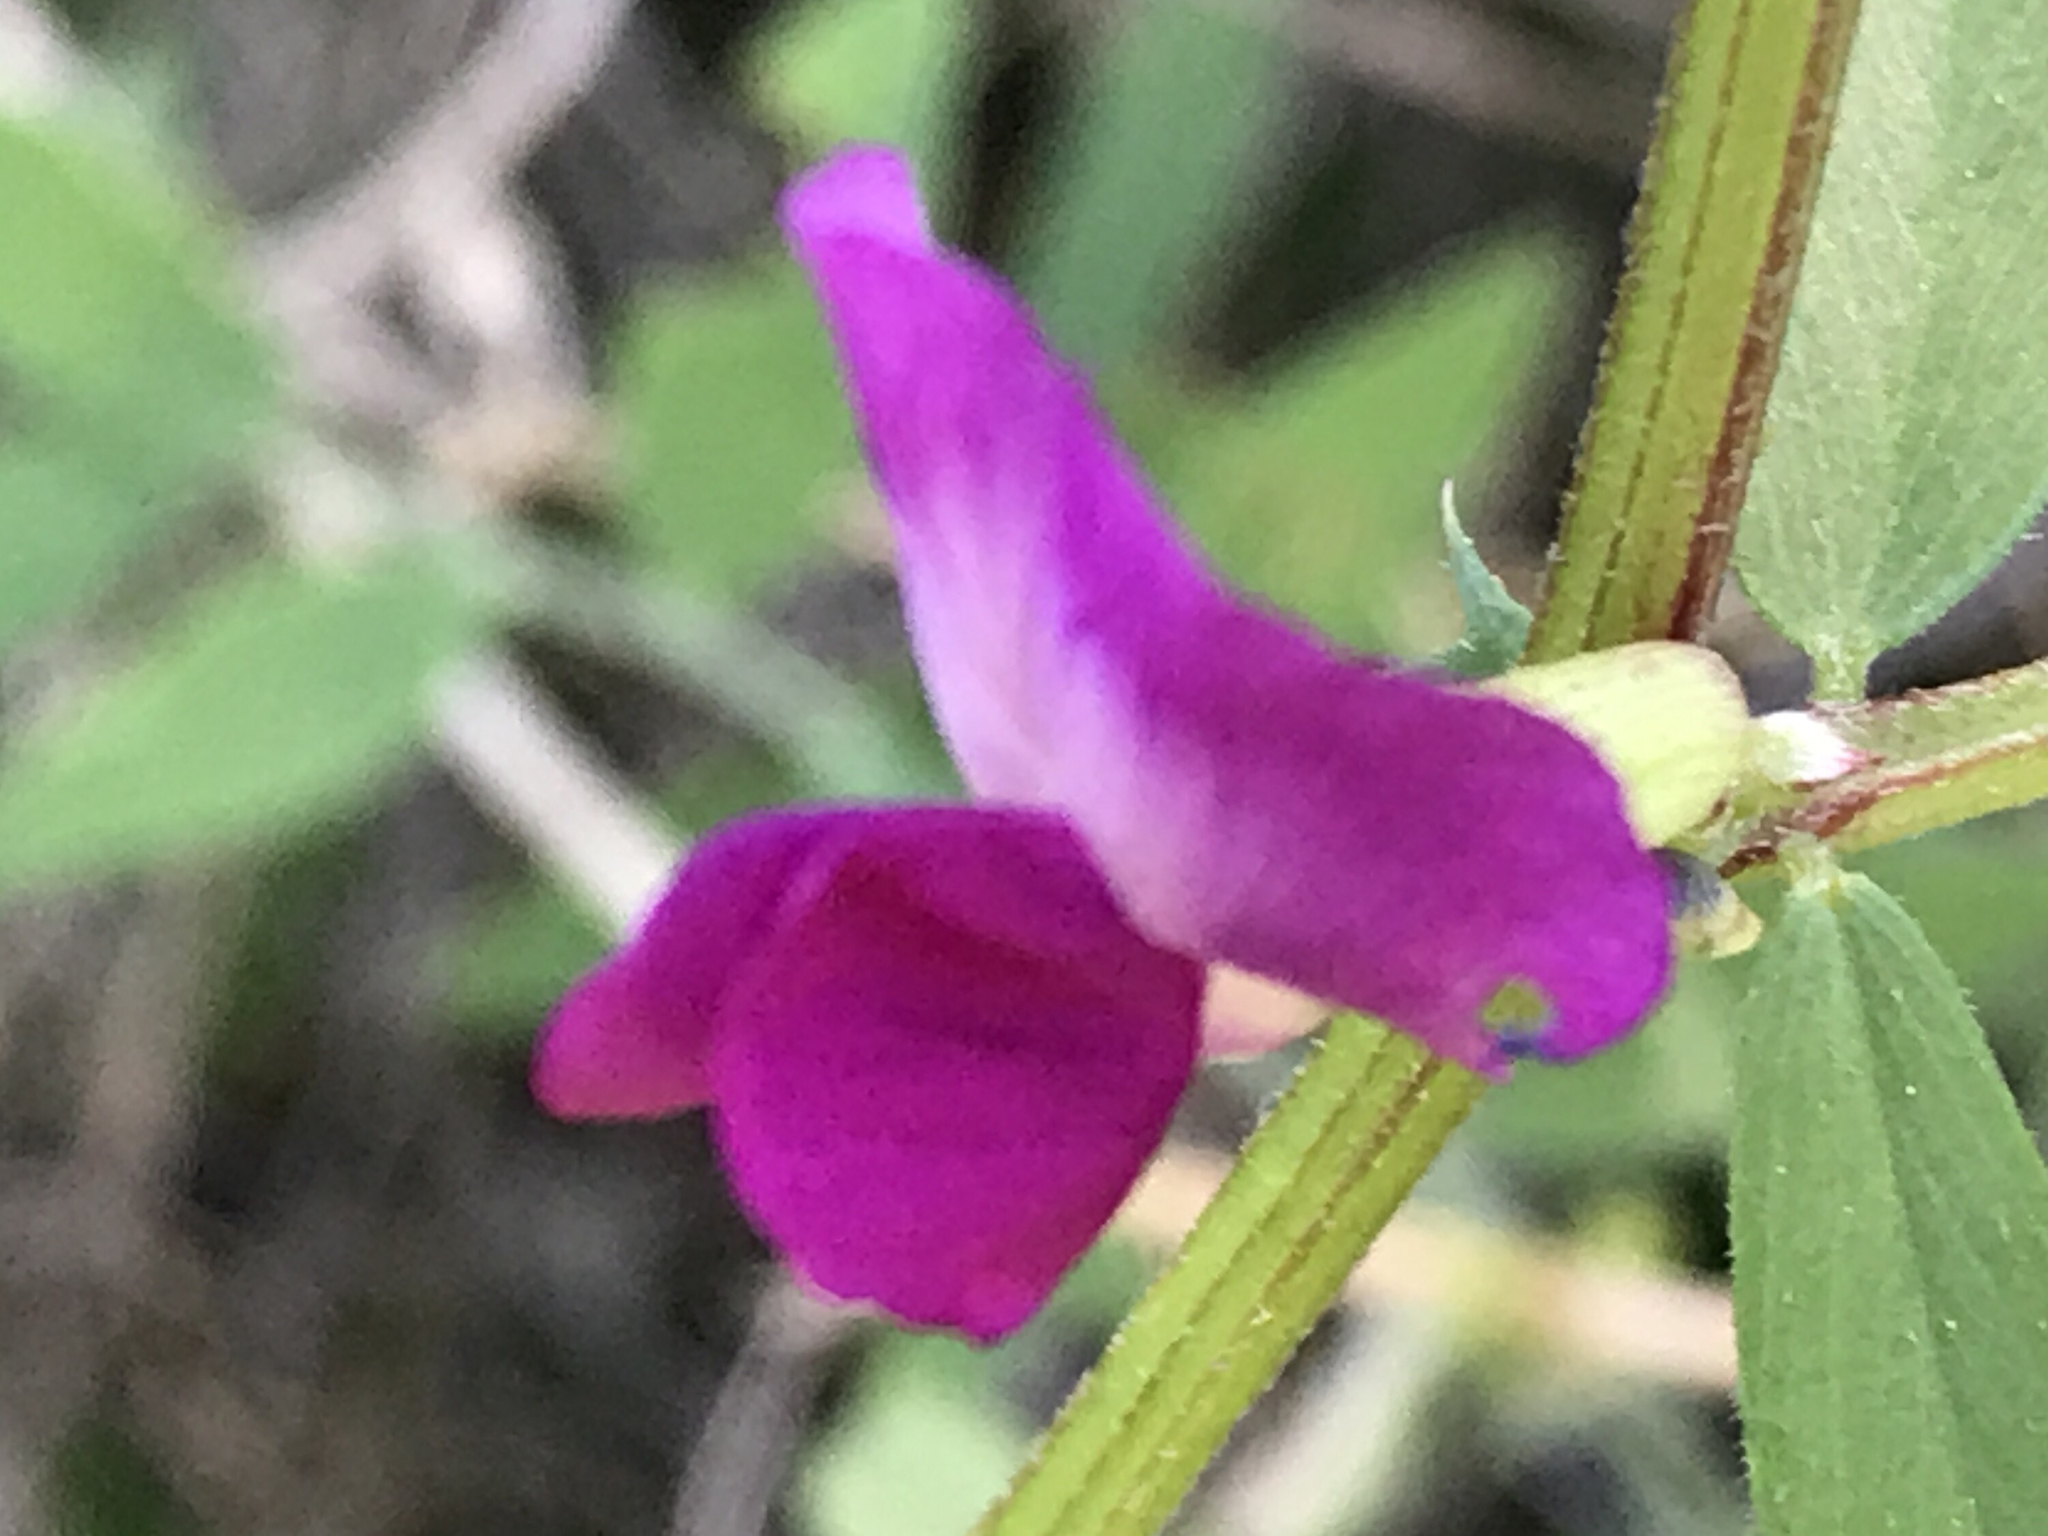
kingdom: Plantae
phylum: Tracheophyta
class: Magnoliopsida
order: Fabales
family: Fabaceae
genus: Vicia
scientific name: Vicia sativa
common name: Garden vetch
